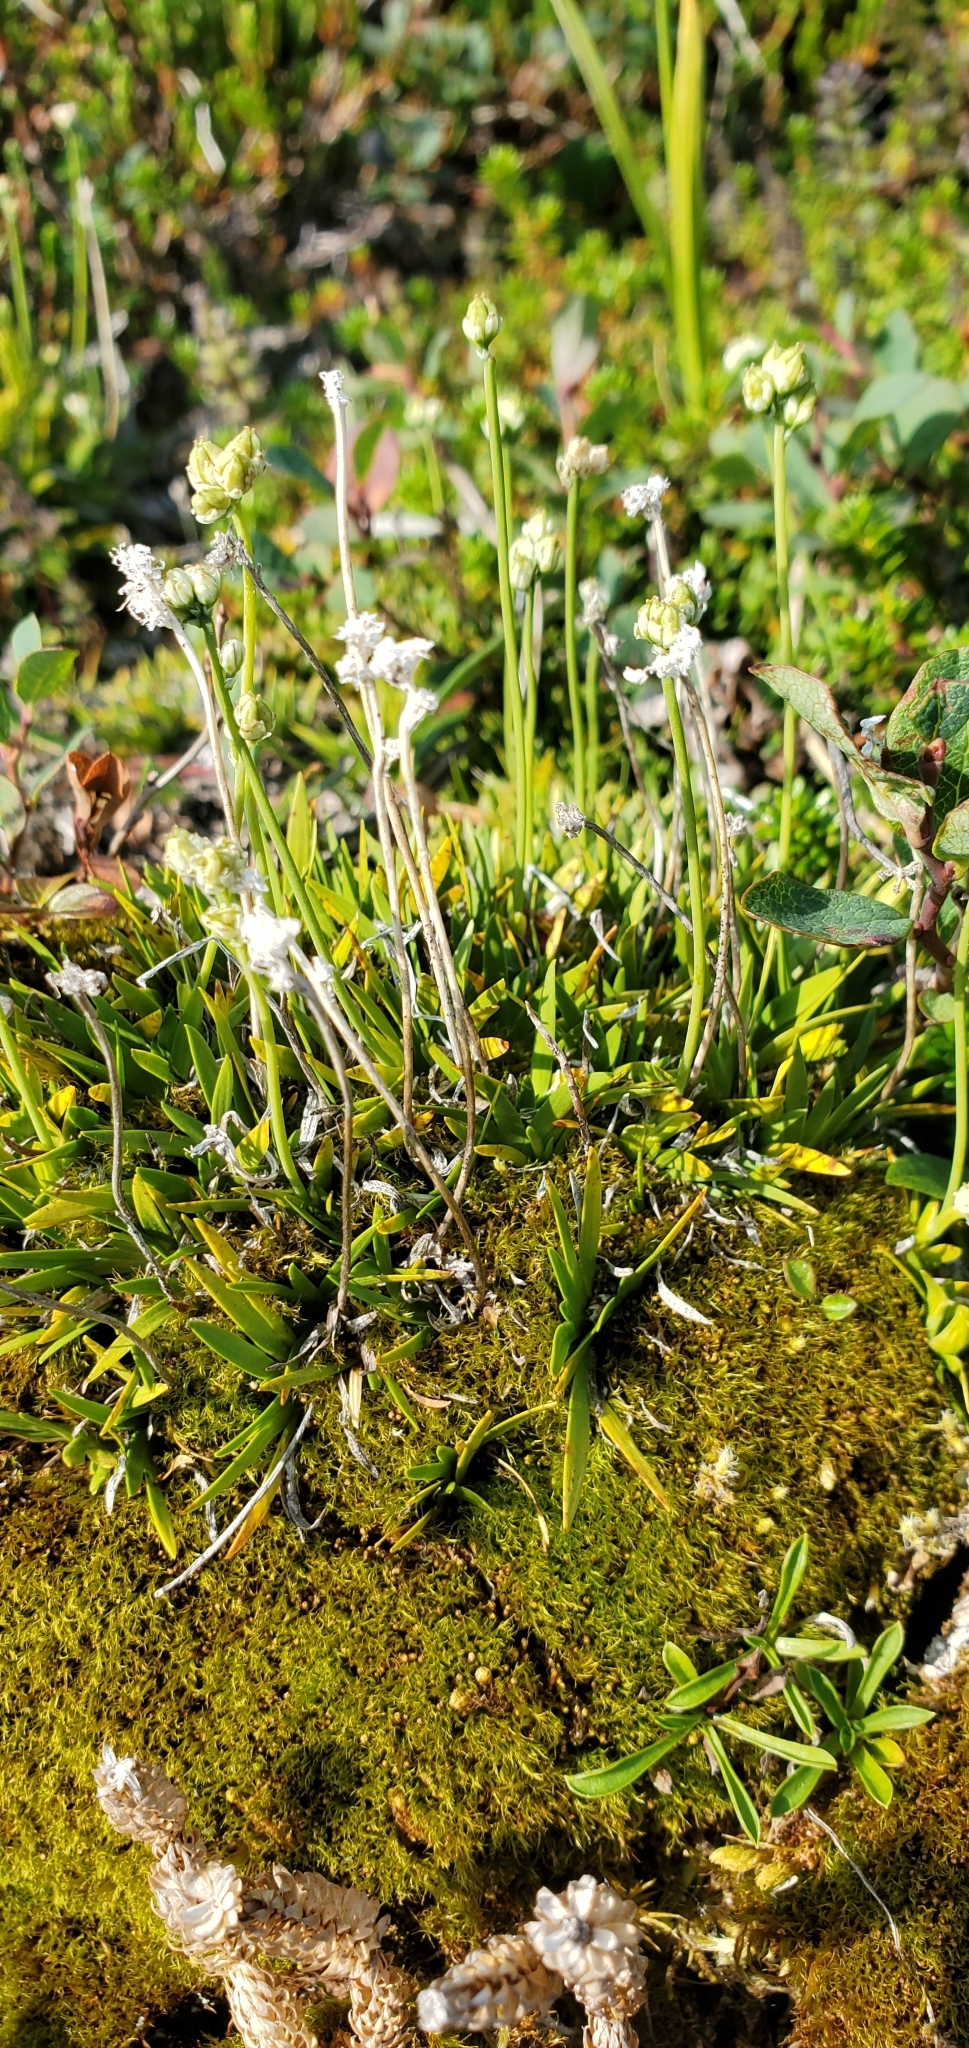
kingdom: Plantae
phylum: Tracheophyta
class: Liliopsida
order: Alismatales
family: Tofieldiaceae
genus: Tofieldia
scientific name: Tofieldia pusilla
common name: Scottish false asphodel
